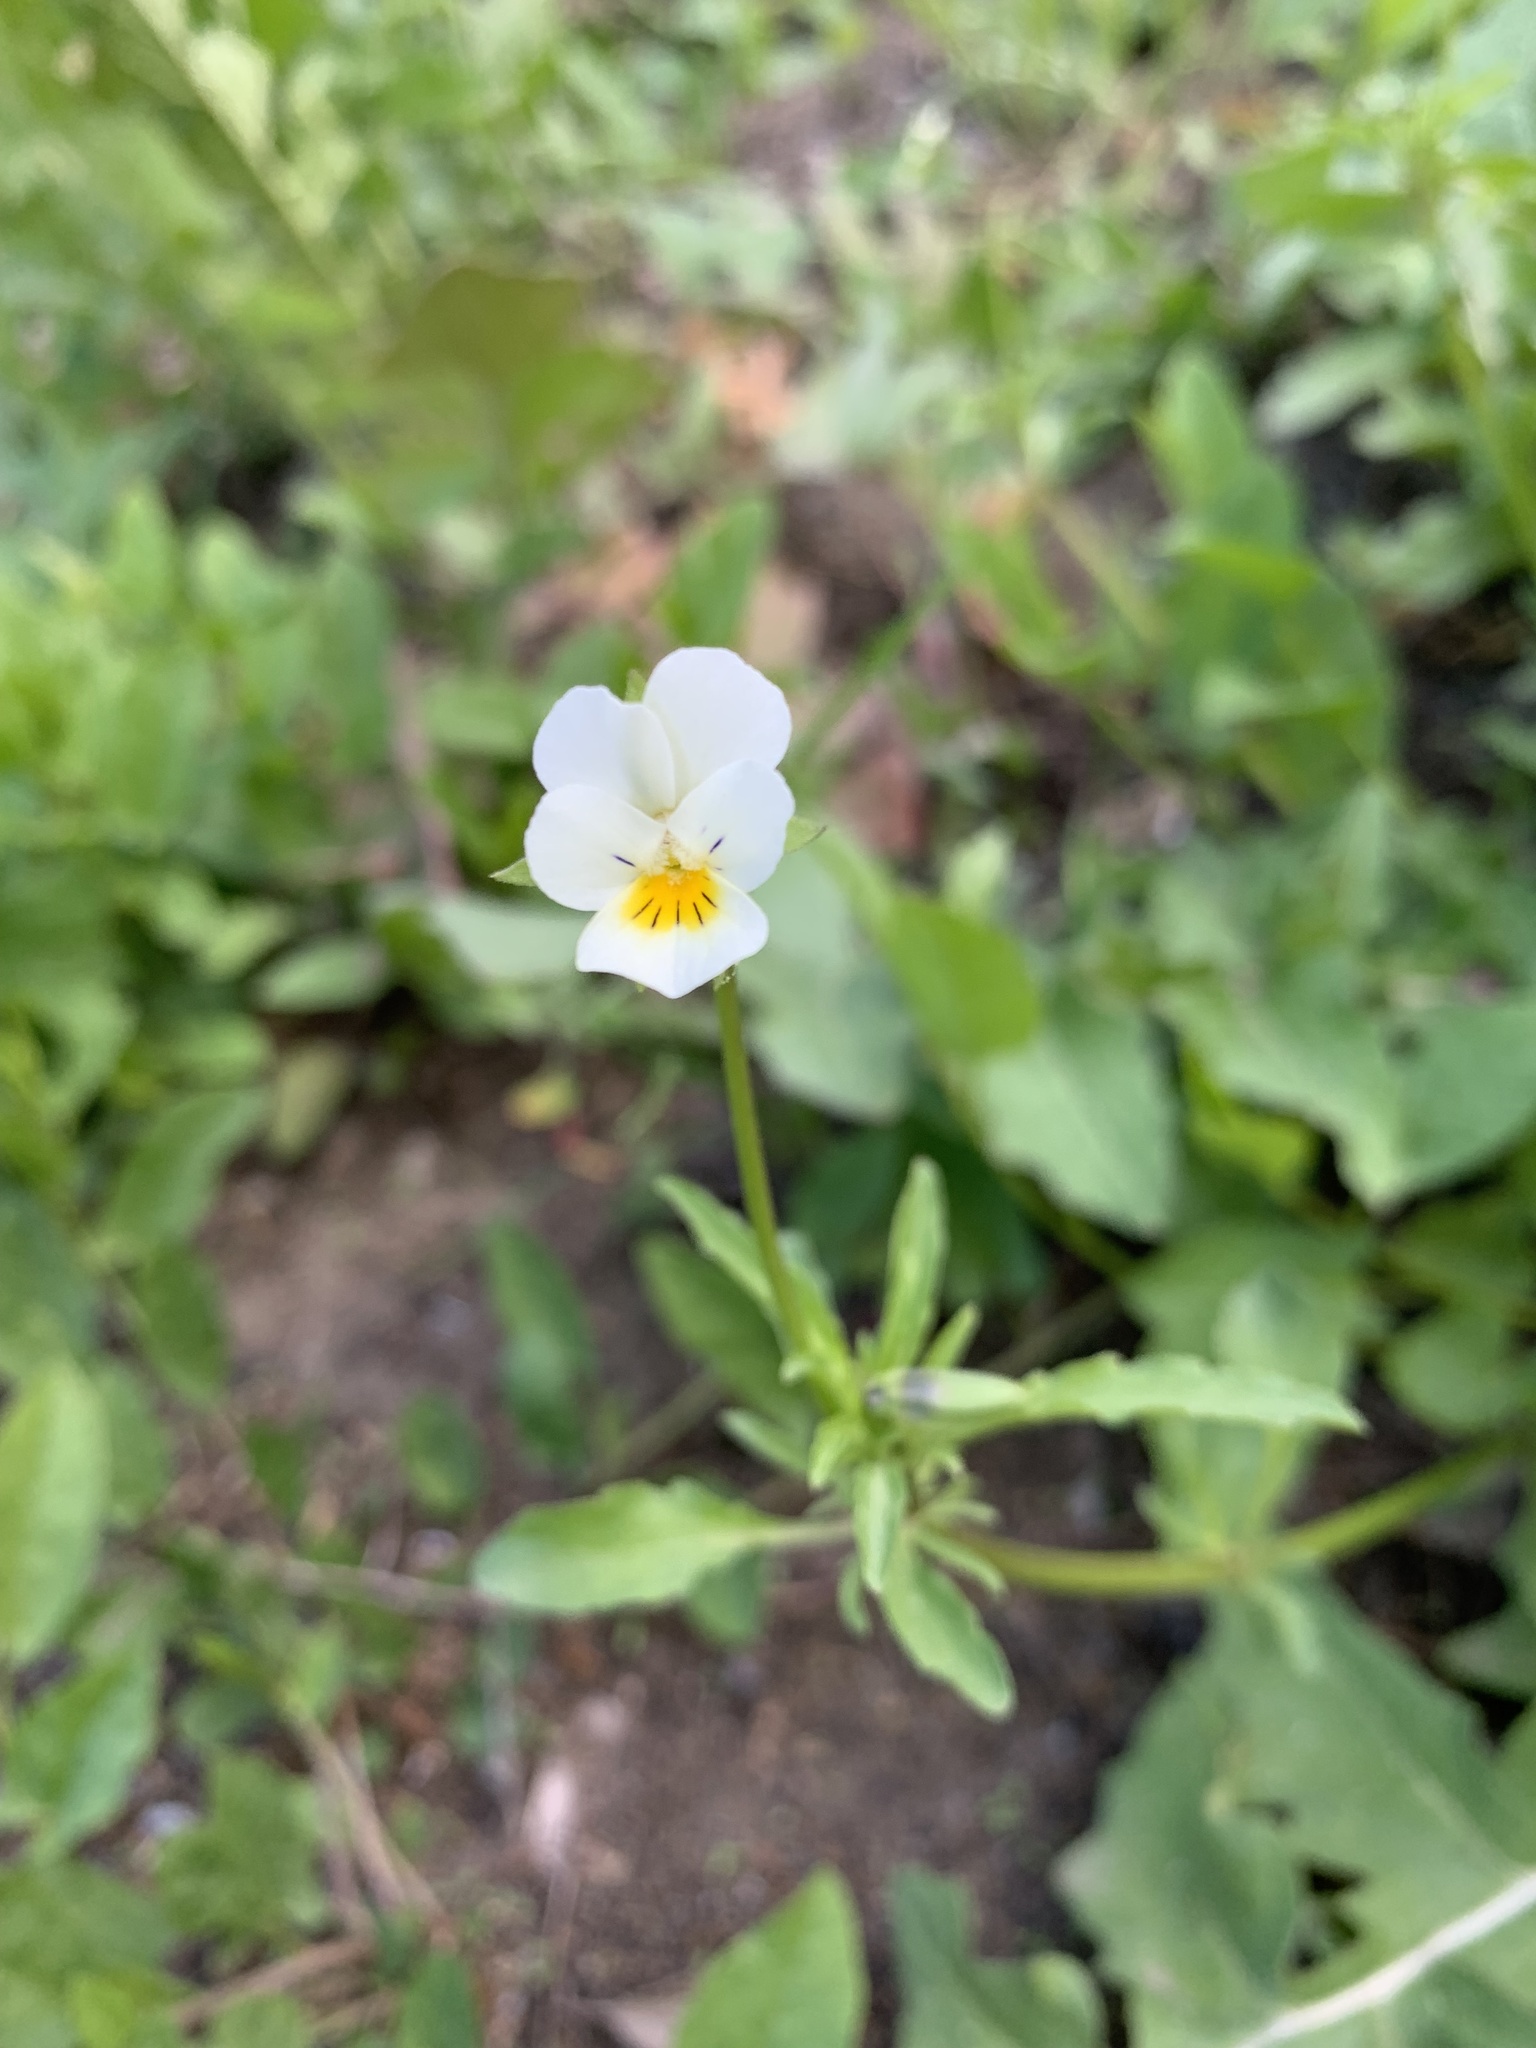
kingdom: Plantae
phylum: Tracheophyta
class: Magnoliopsida
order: Malpighiales
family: Violaceae
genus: Viola
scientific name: Viola arvensis
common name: Field pansy
